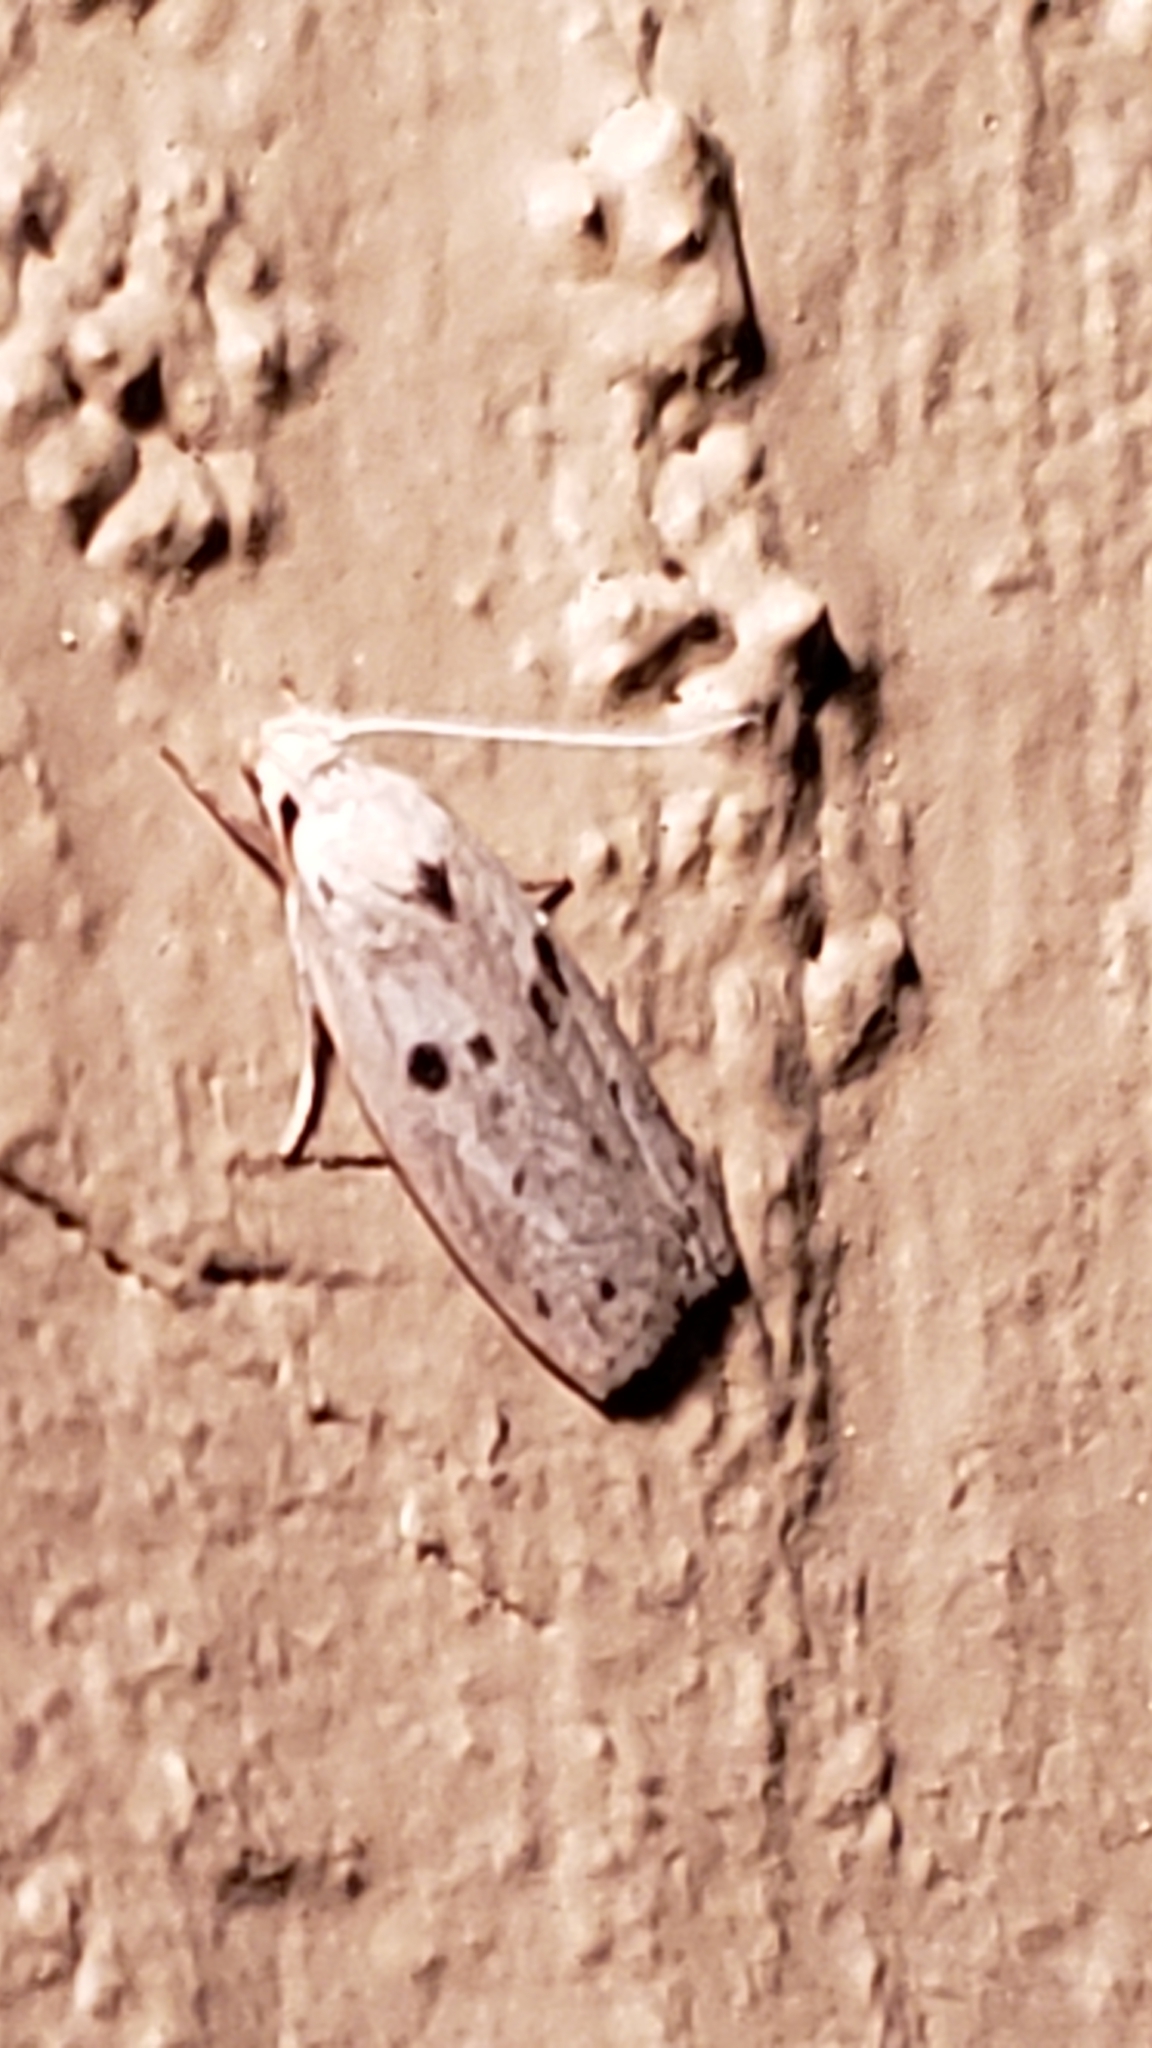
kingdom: Animalia
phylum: Arthropoda
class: Insecta
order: Lepidoptera
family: Peleopodidae
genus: Scythropiodes
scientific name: Scythropiodes issikii
